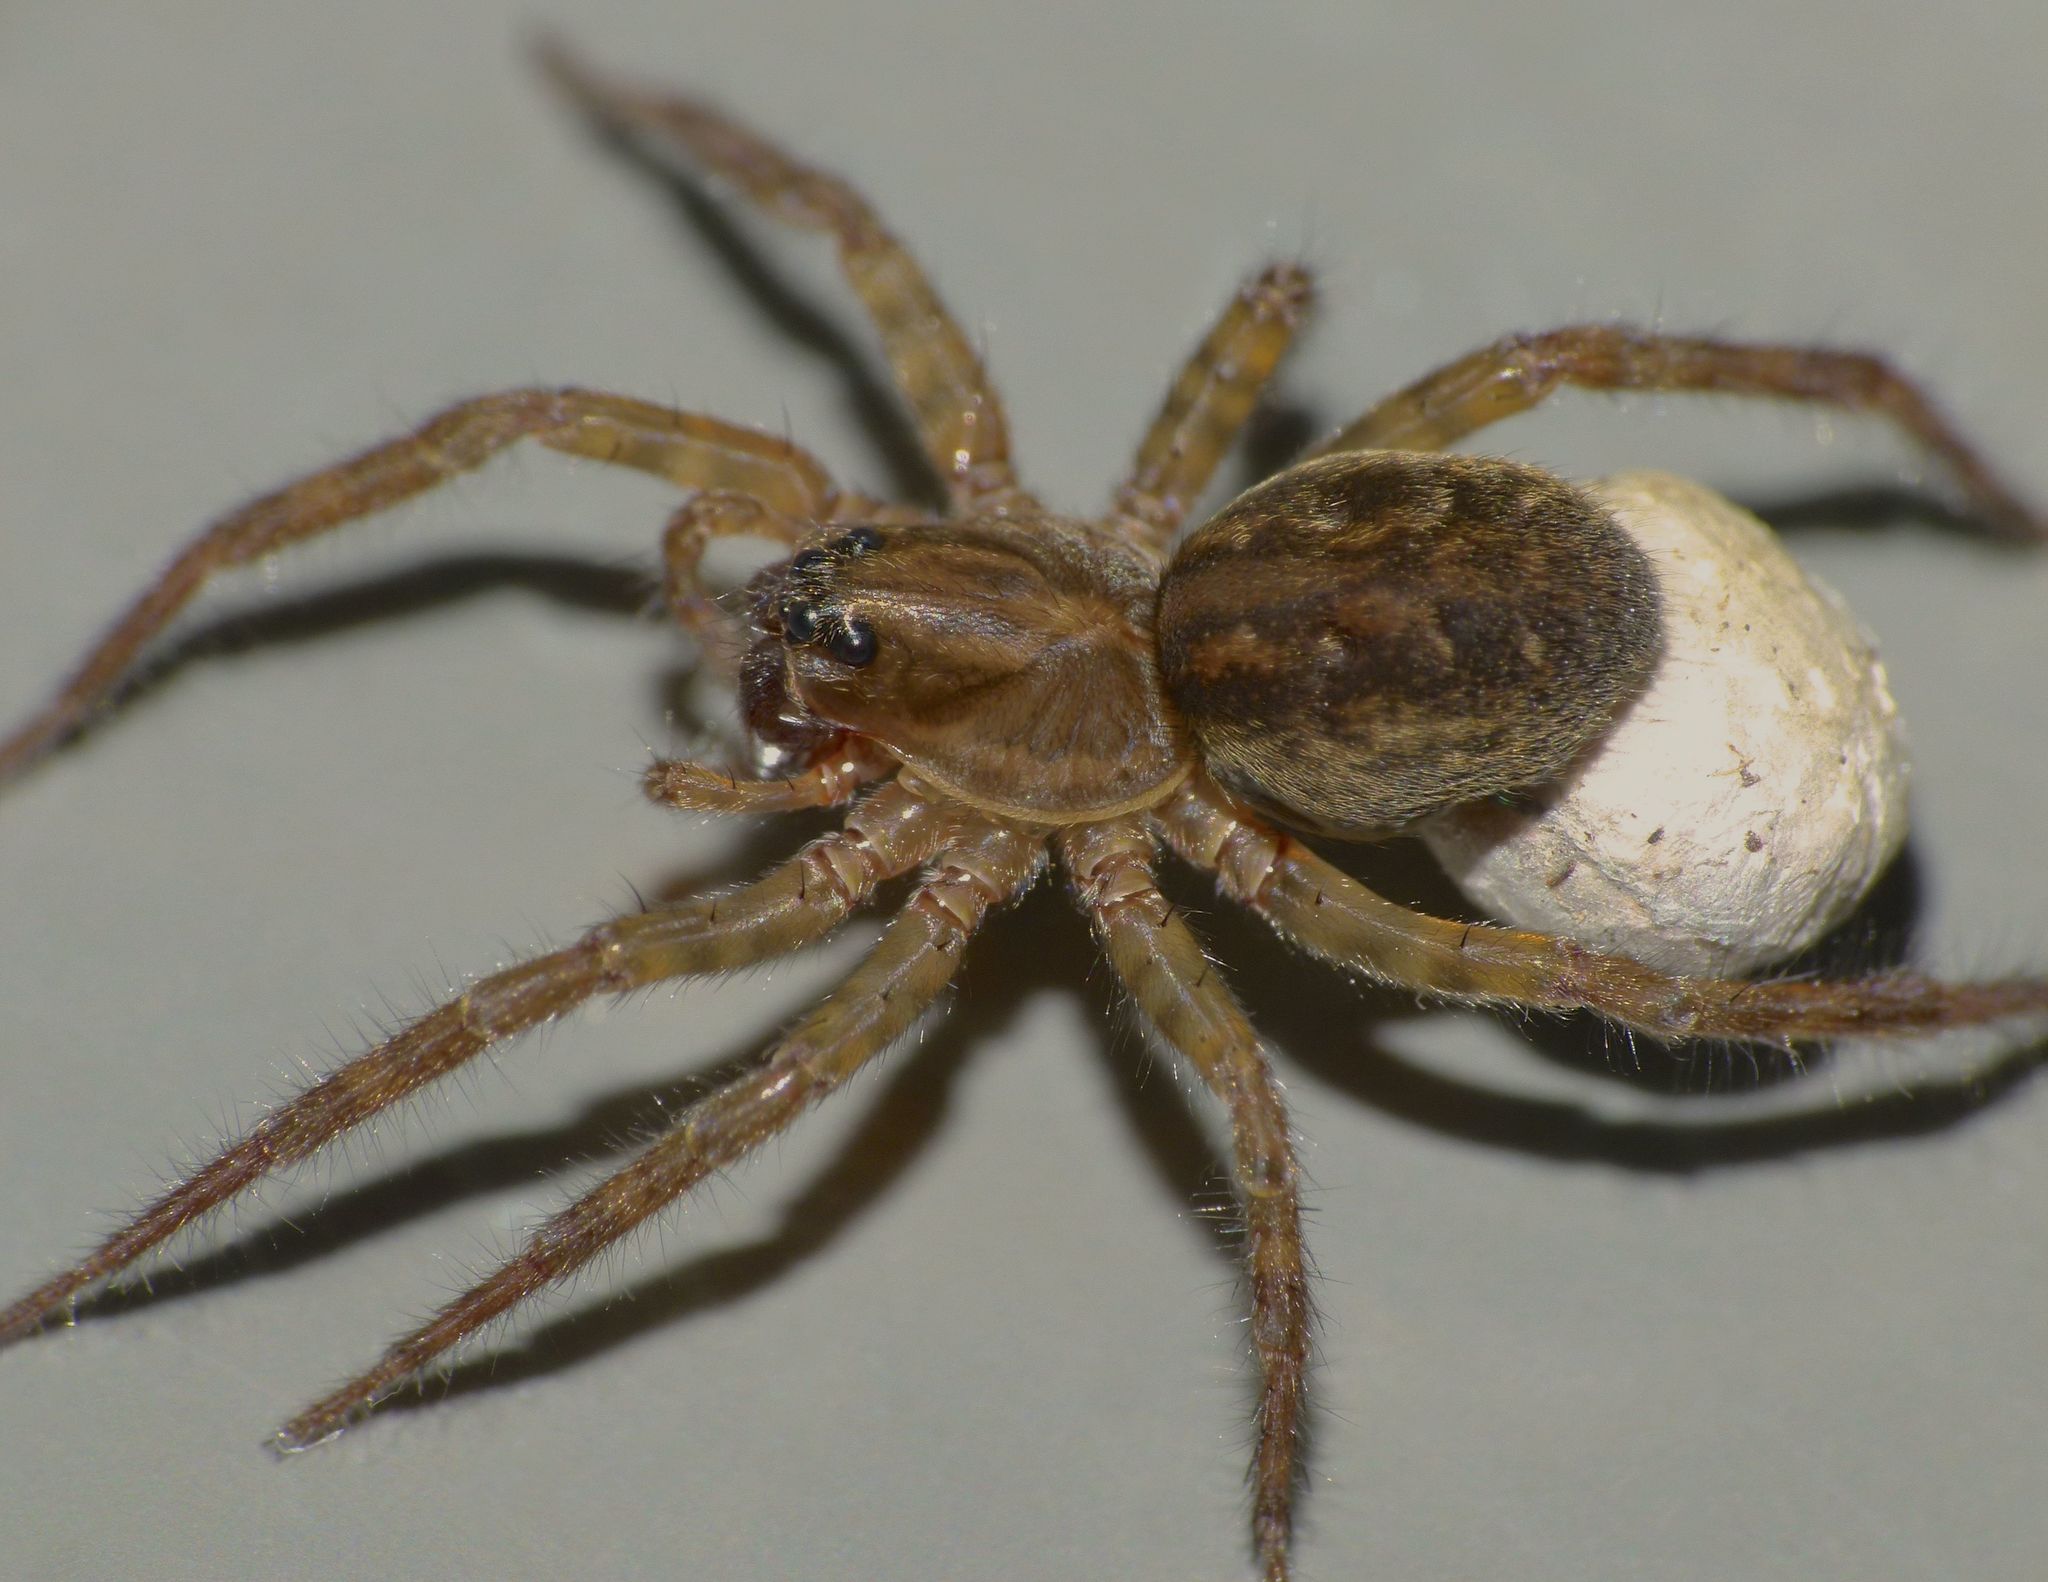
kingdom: Animalia
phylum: Arthropoda
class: Arachnida
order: Araneae
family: Lycosidae
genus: Allotrochosina
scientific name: Allotrochosina schauinslandi
